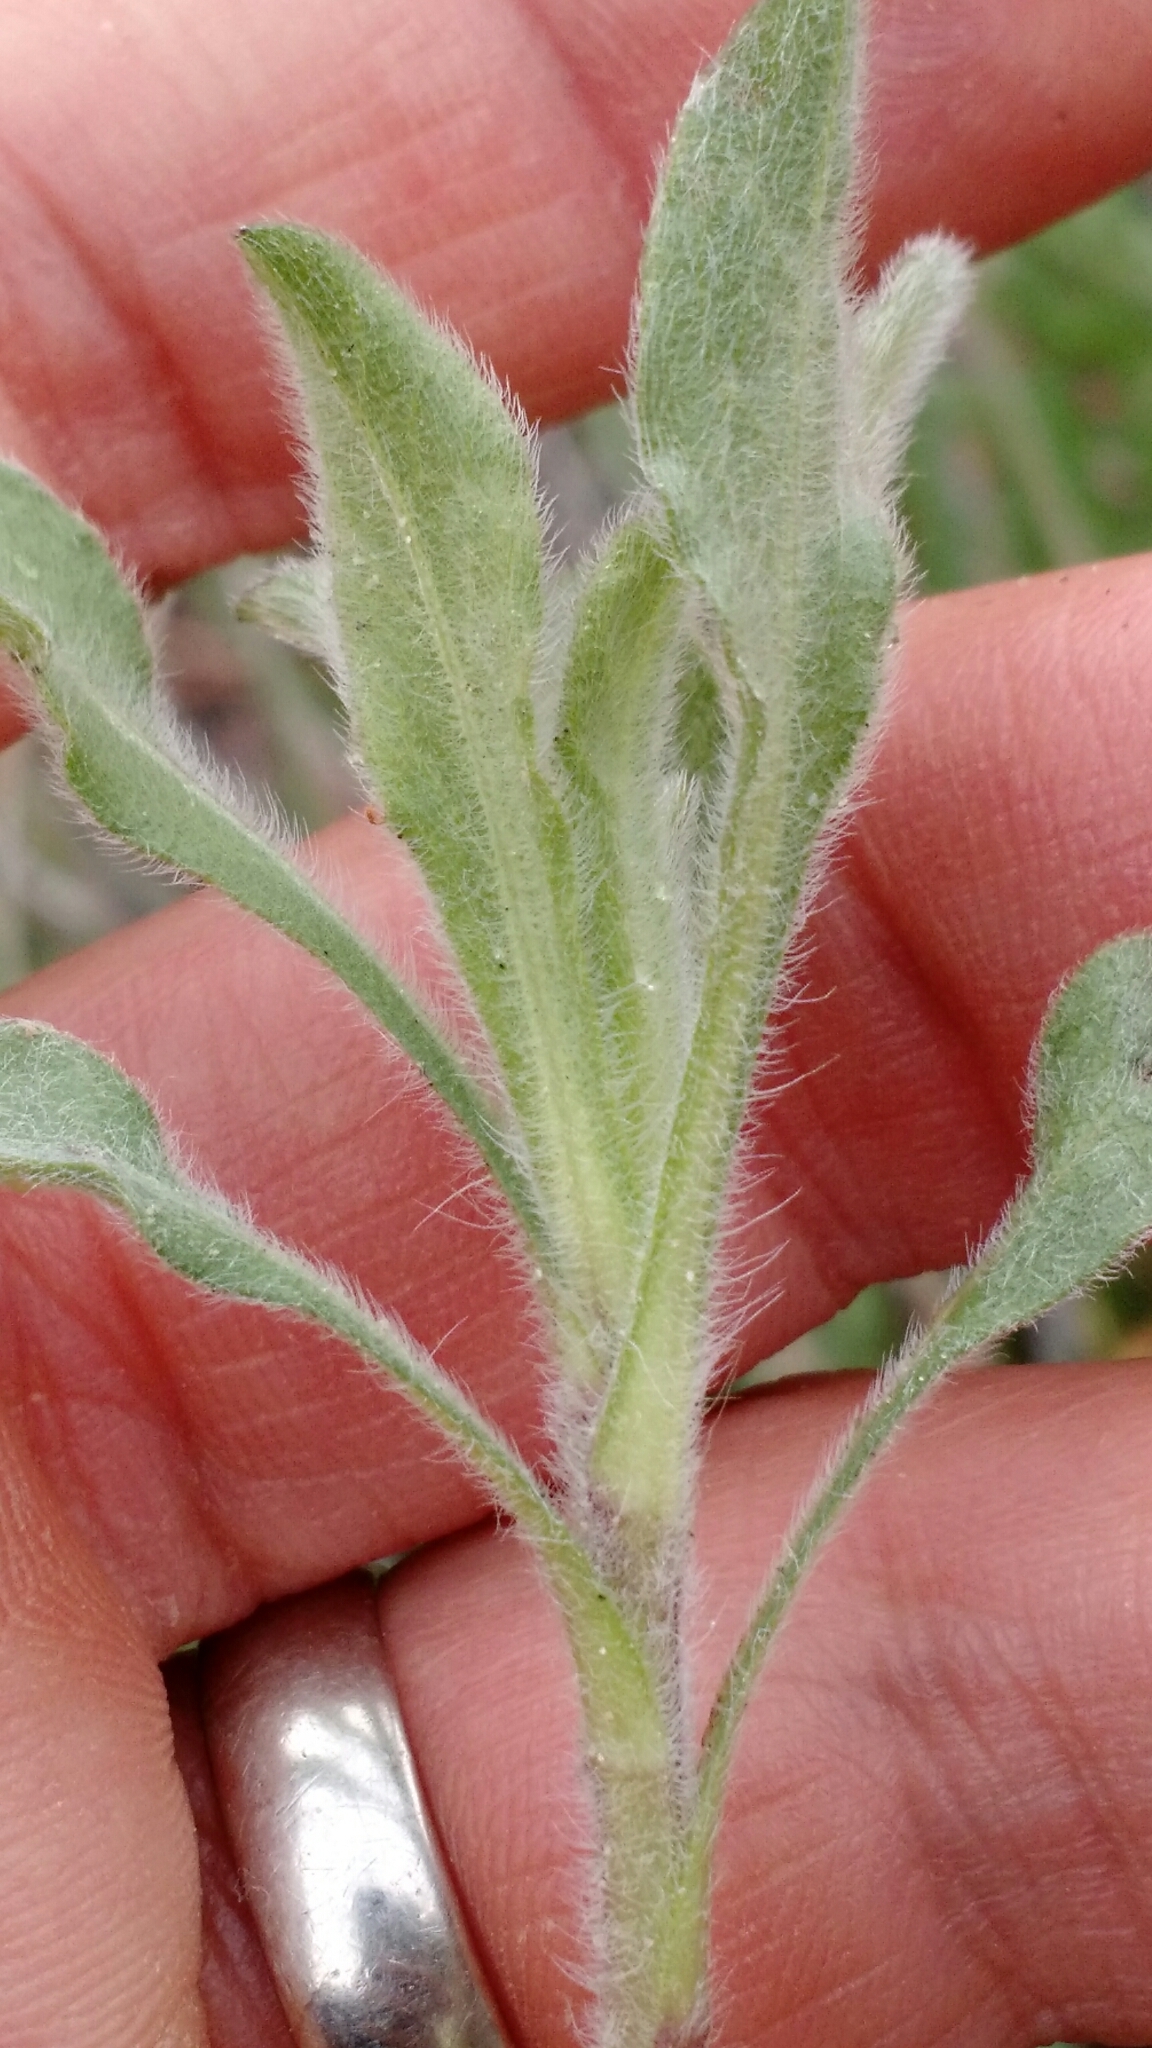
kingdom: Plantae
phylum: Tracheophyta
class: Magnoliopsida
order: Asterales
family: Asteraceae
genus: Heterotheca
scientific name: Heterotheca villosa
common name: Hairy false goldenaster
